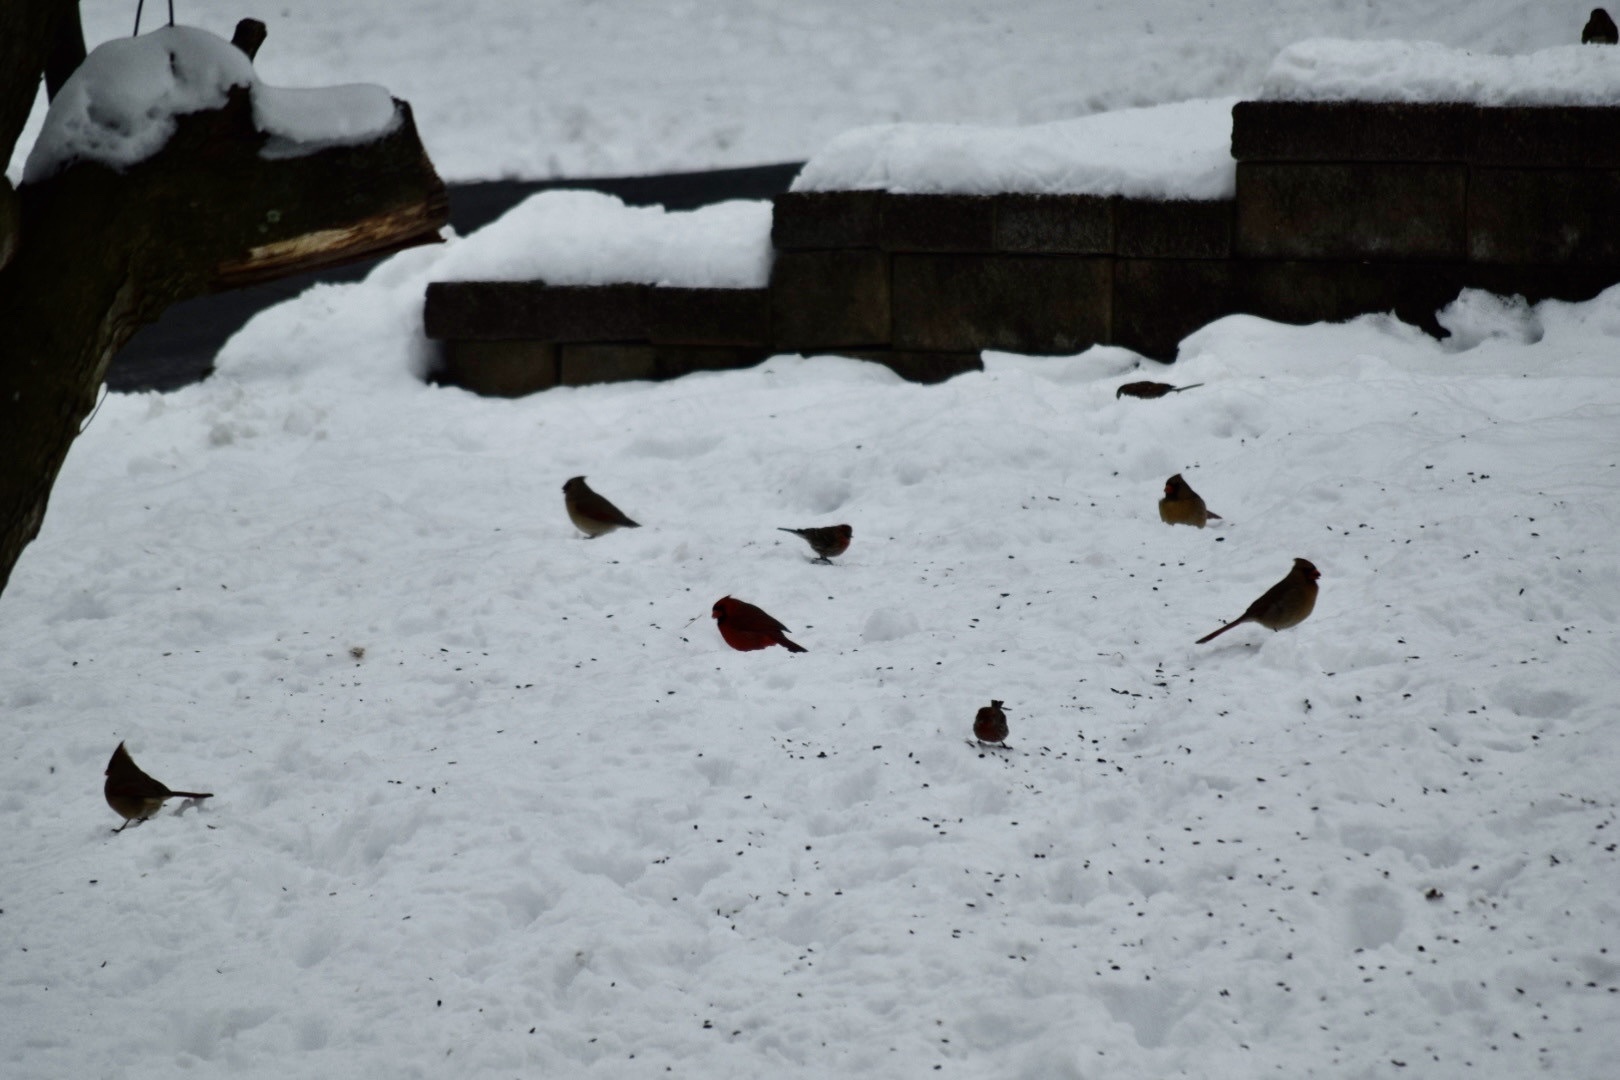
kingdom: Animalia
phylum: Chordata
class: Aves
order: Passeriformes
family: Cardinalidae
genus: Cardinalis
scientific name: Cardinalis cardinalis
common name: Northern cardinal
